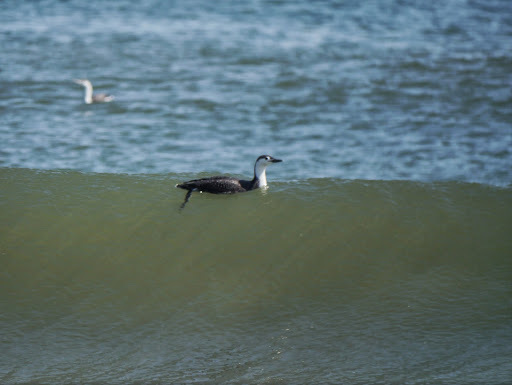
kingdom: Animalia
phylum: Chordata
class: Aves
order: Gaviiformes
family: Gaviidae
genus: Gavia
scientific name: Gavia stellata
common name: Red-throated loon
